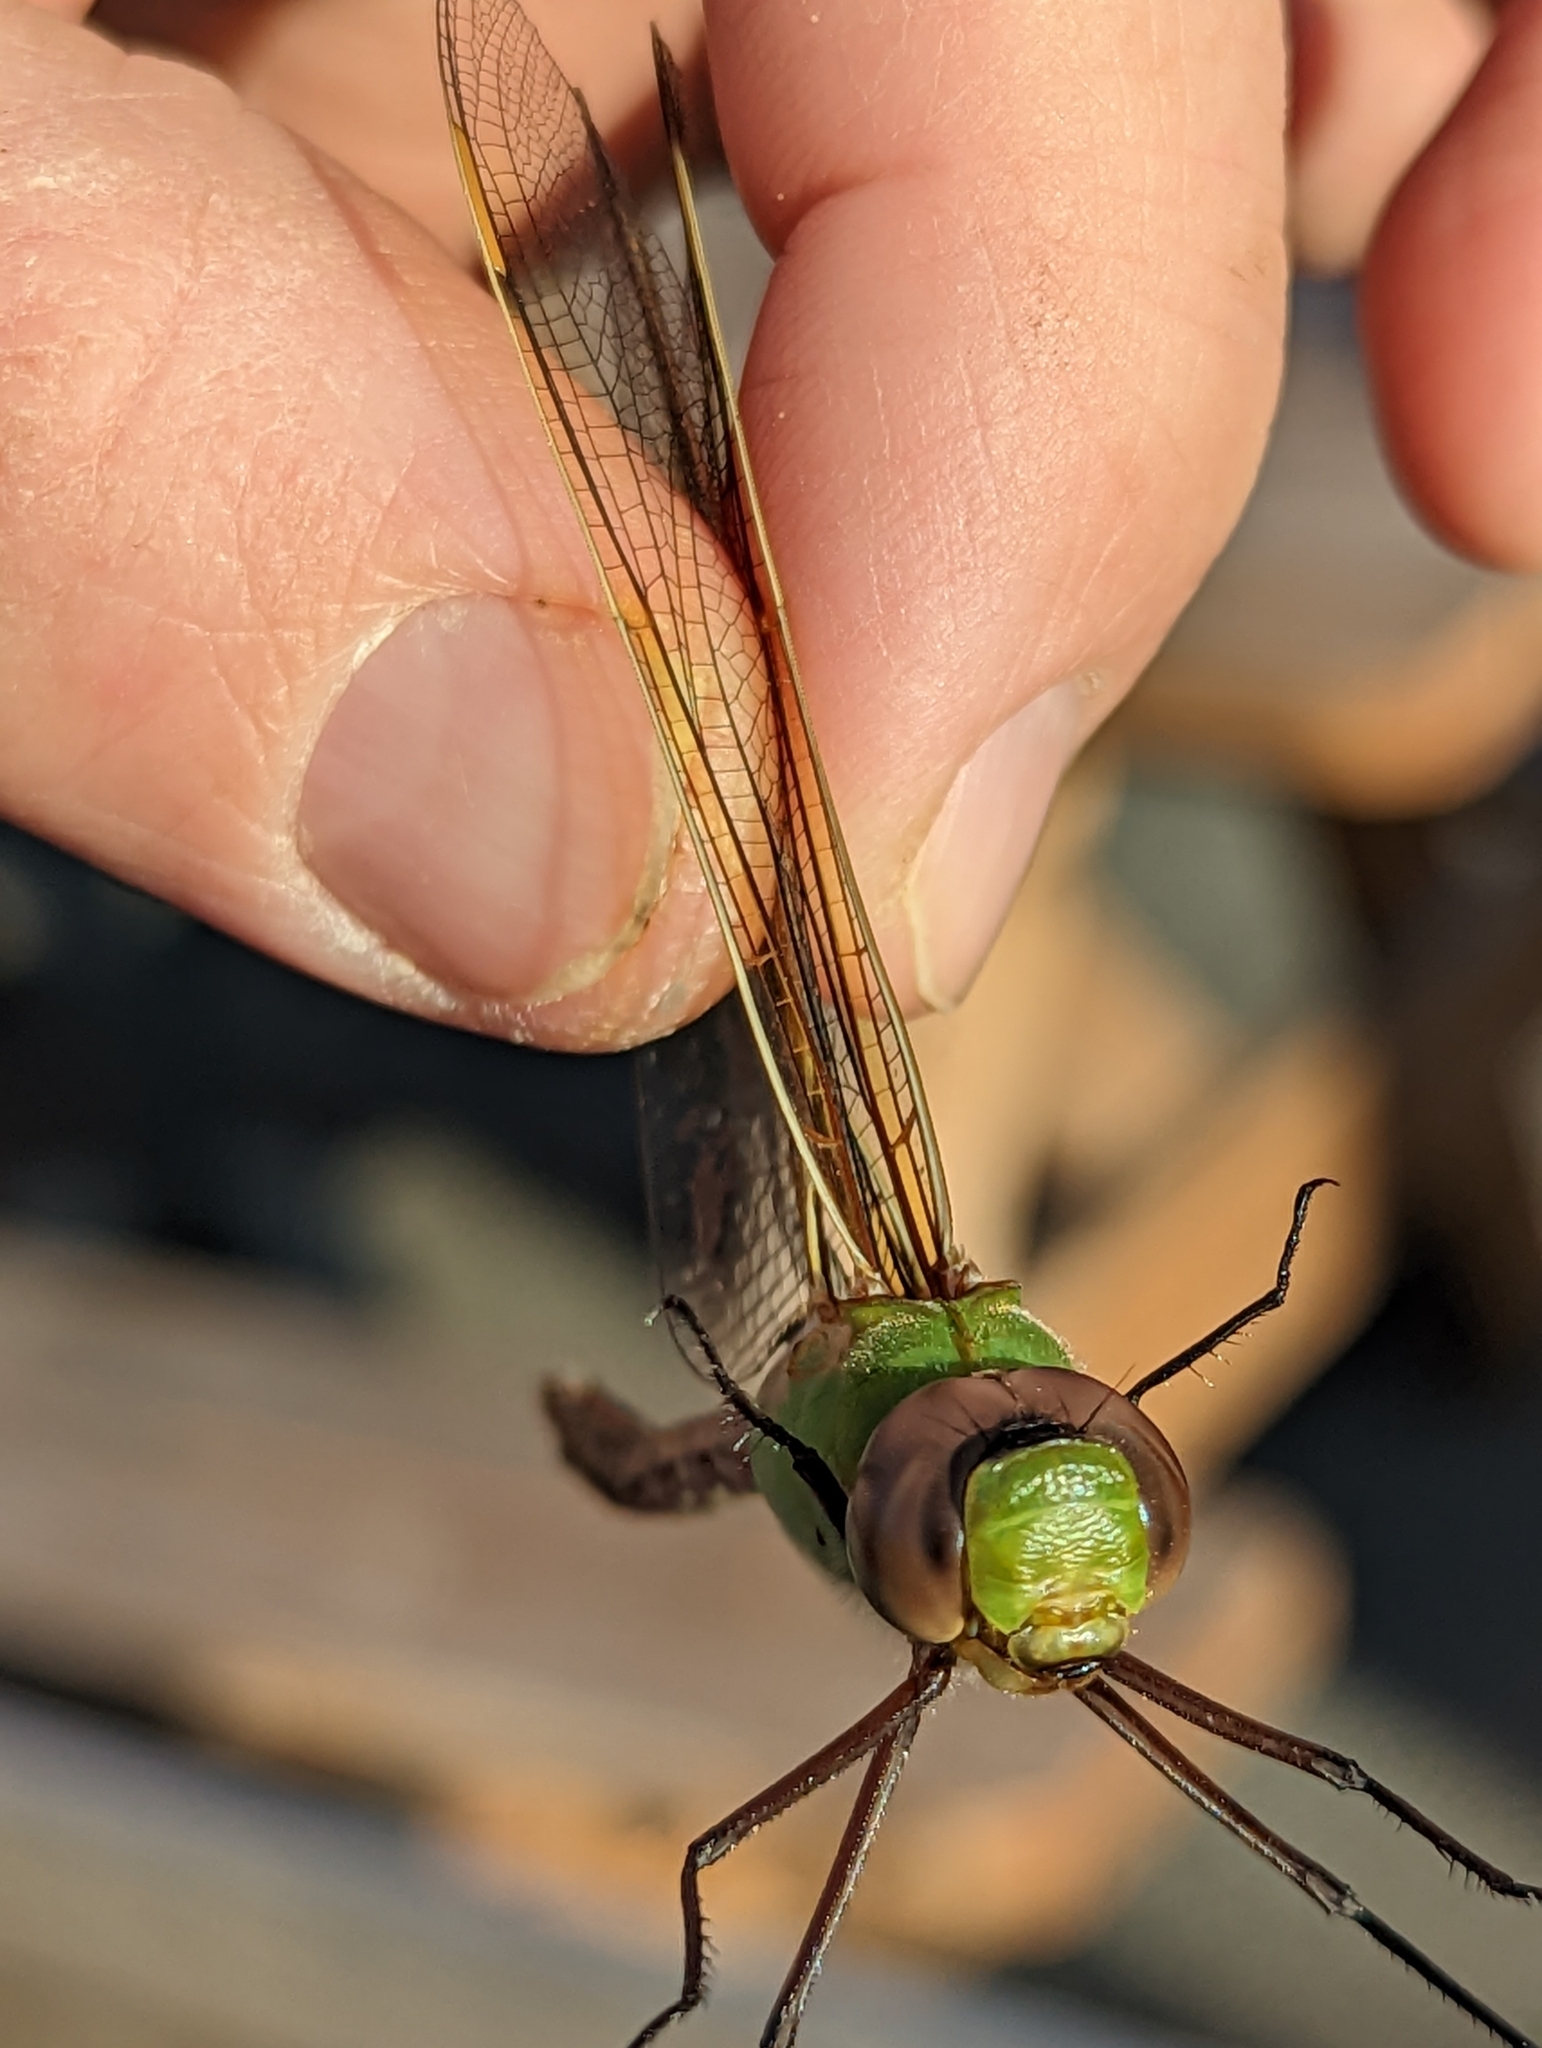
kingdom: Animalia
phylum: Arthropoda
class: Insecta
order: Odonata
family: Aeshnidae
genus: Anax
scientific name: Anax junius
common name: Common green darner
